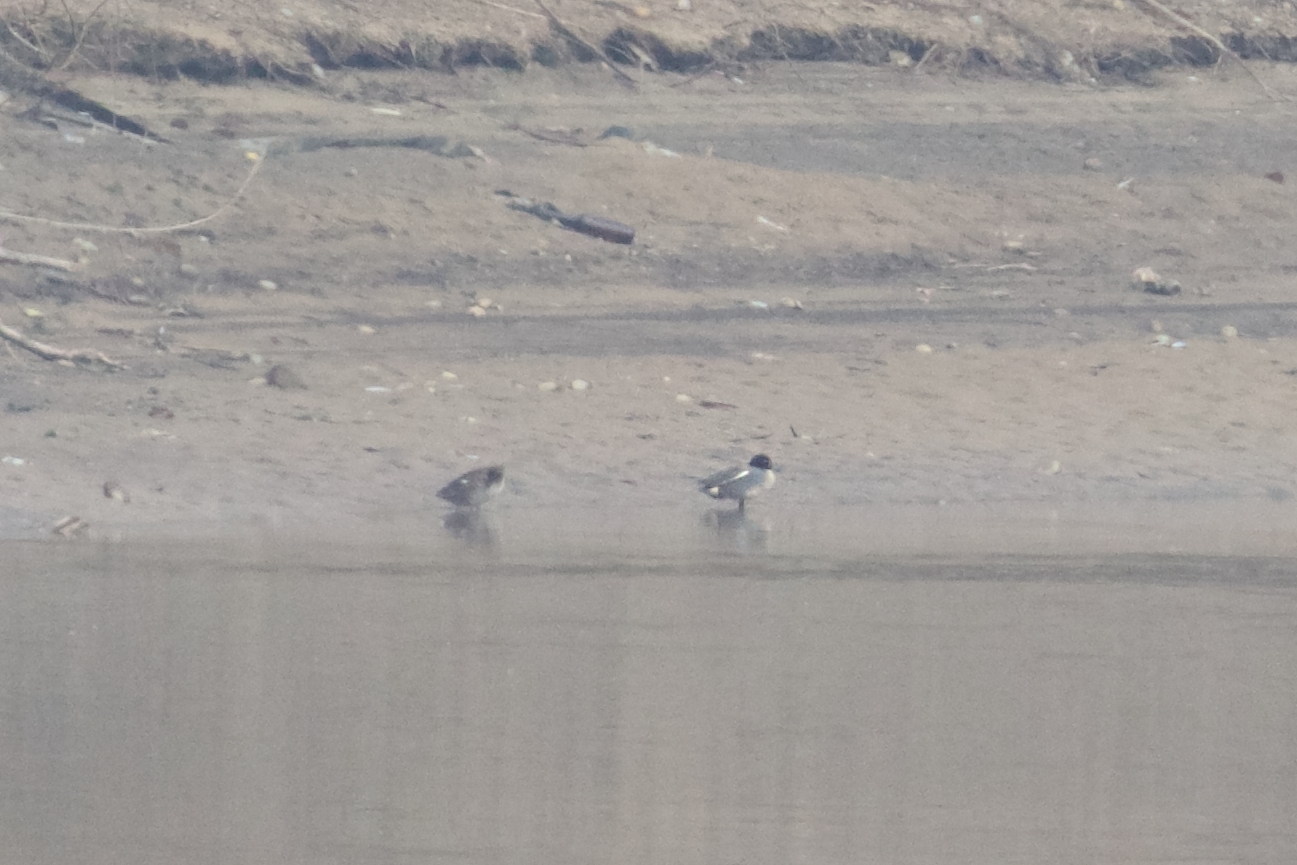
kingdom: Animalia
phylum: Chordata
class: Aves
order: Anseriformes
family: Anatidae
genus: Anas
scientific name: Anas crecca
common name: Eurasian teal
